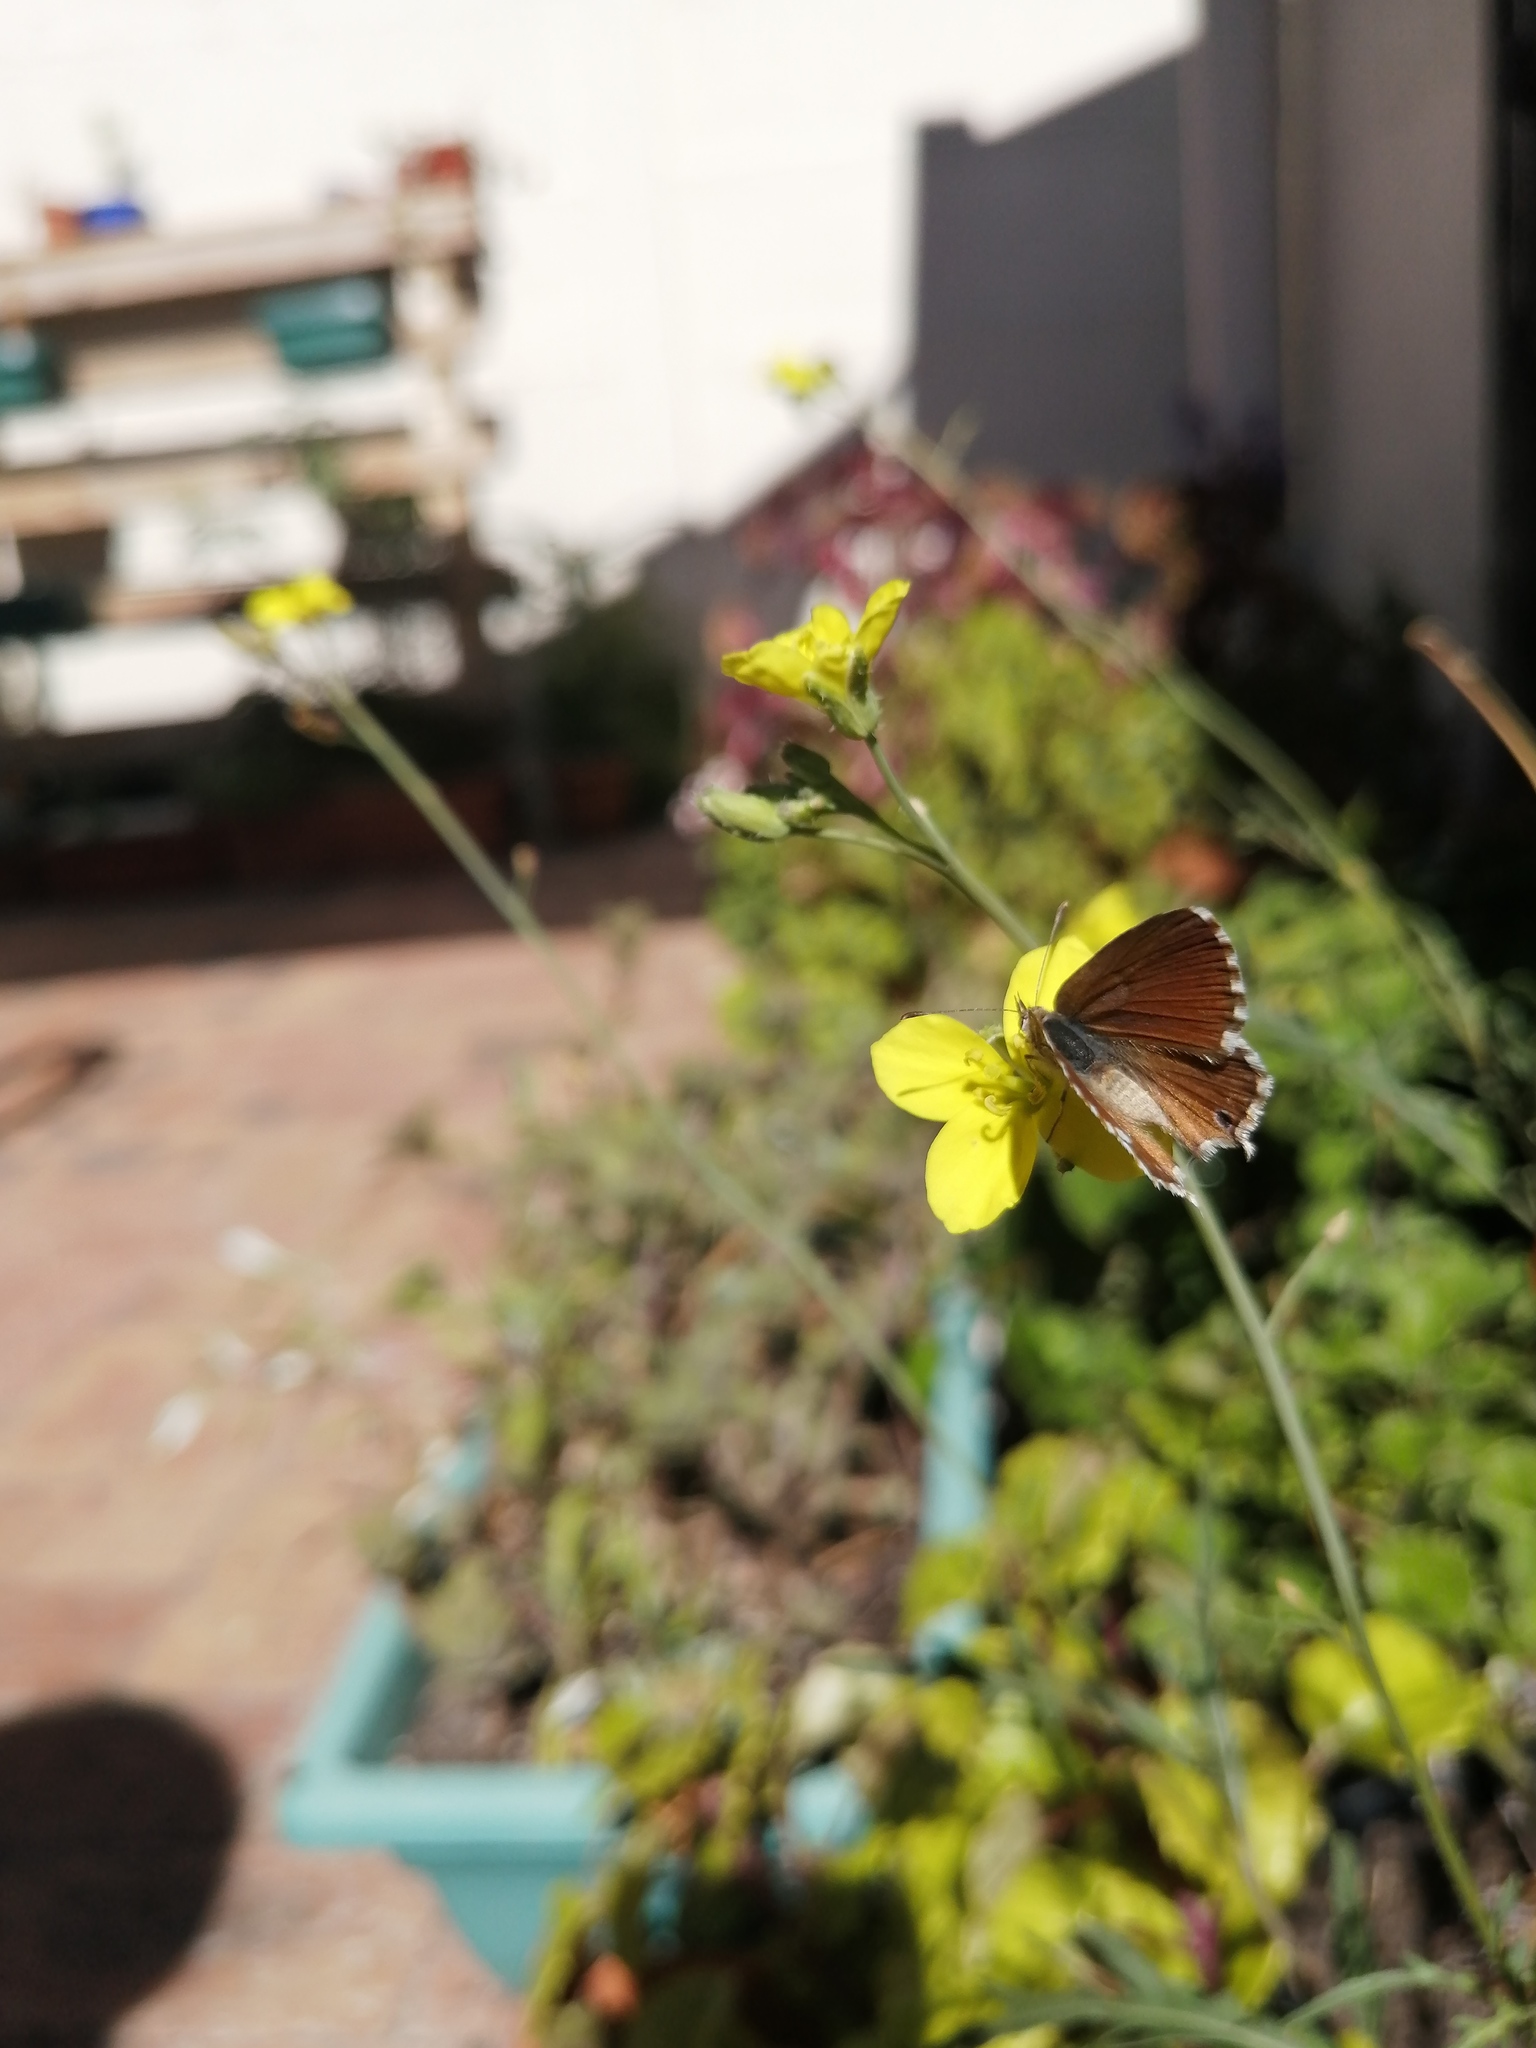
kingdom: Animalia
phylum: Arthropoda
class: Insecta
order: Lepidoptera
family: Lycaenidae
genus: Cacyreus
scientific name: Cacyreus fracta
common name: Water bronze
